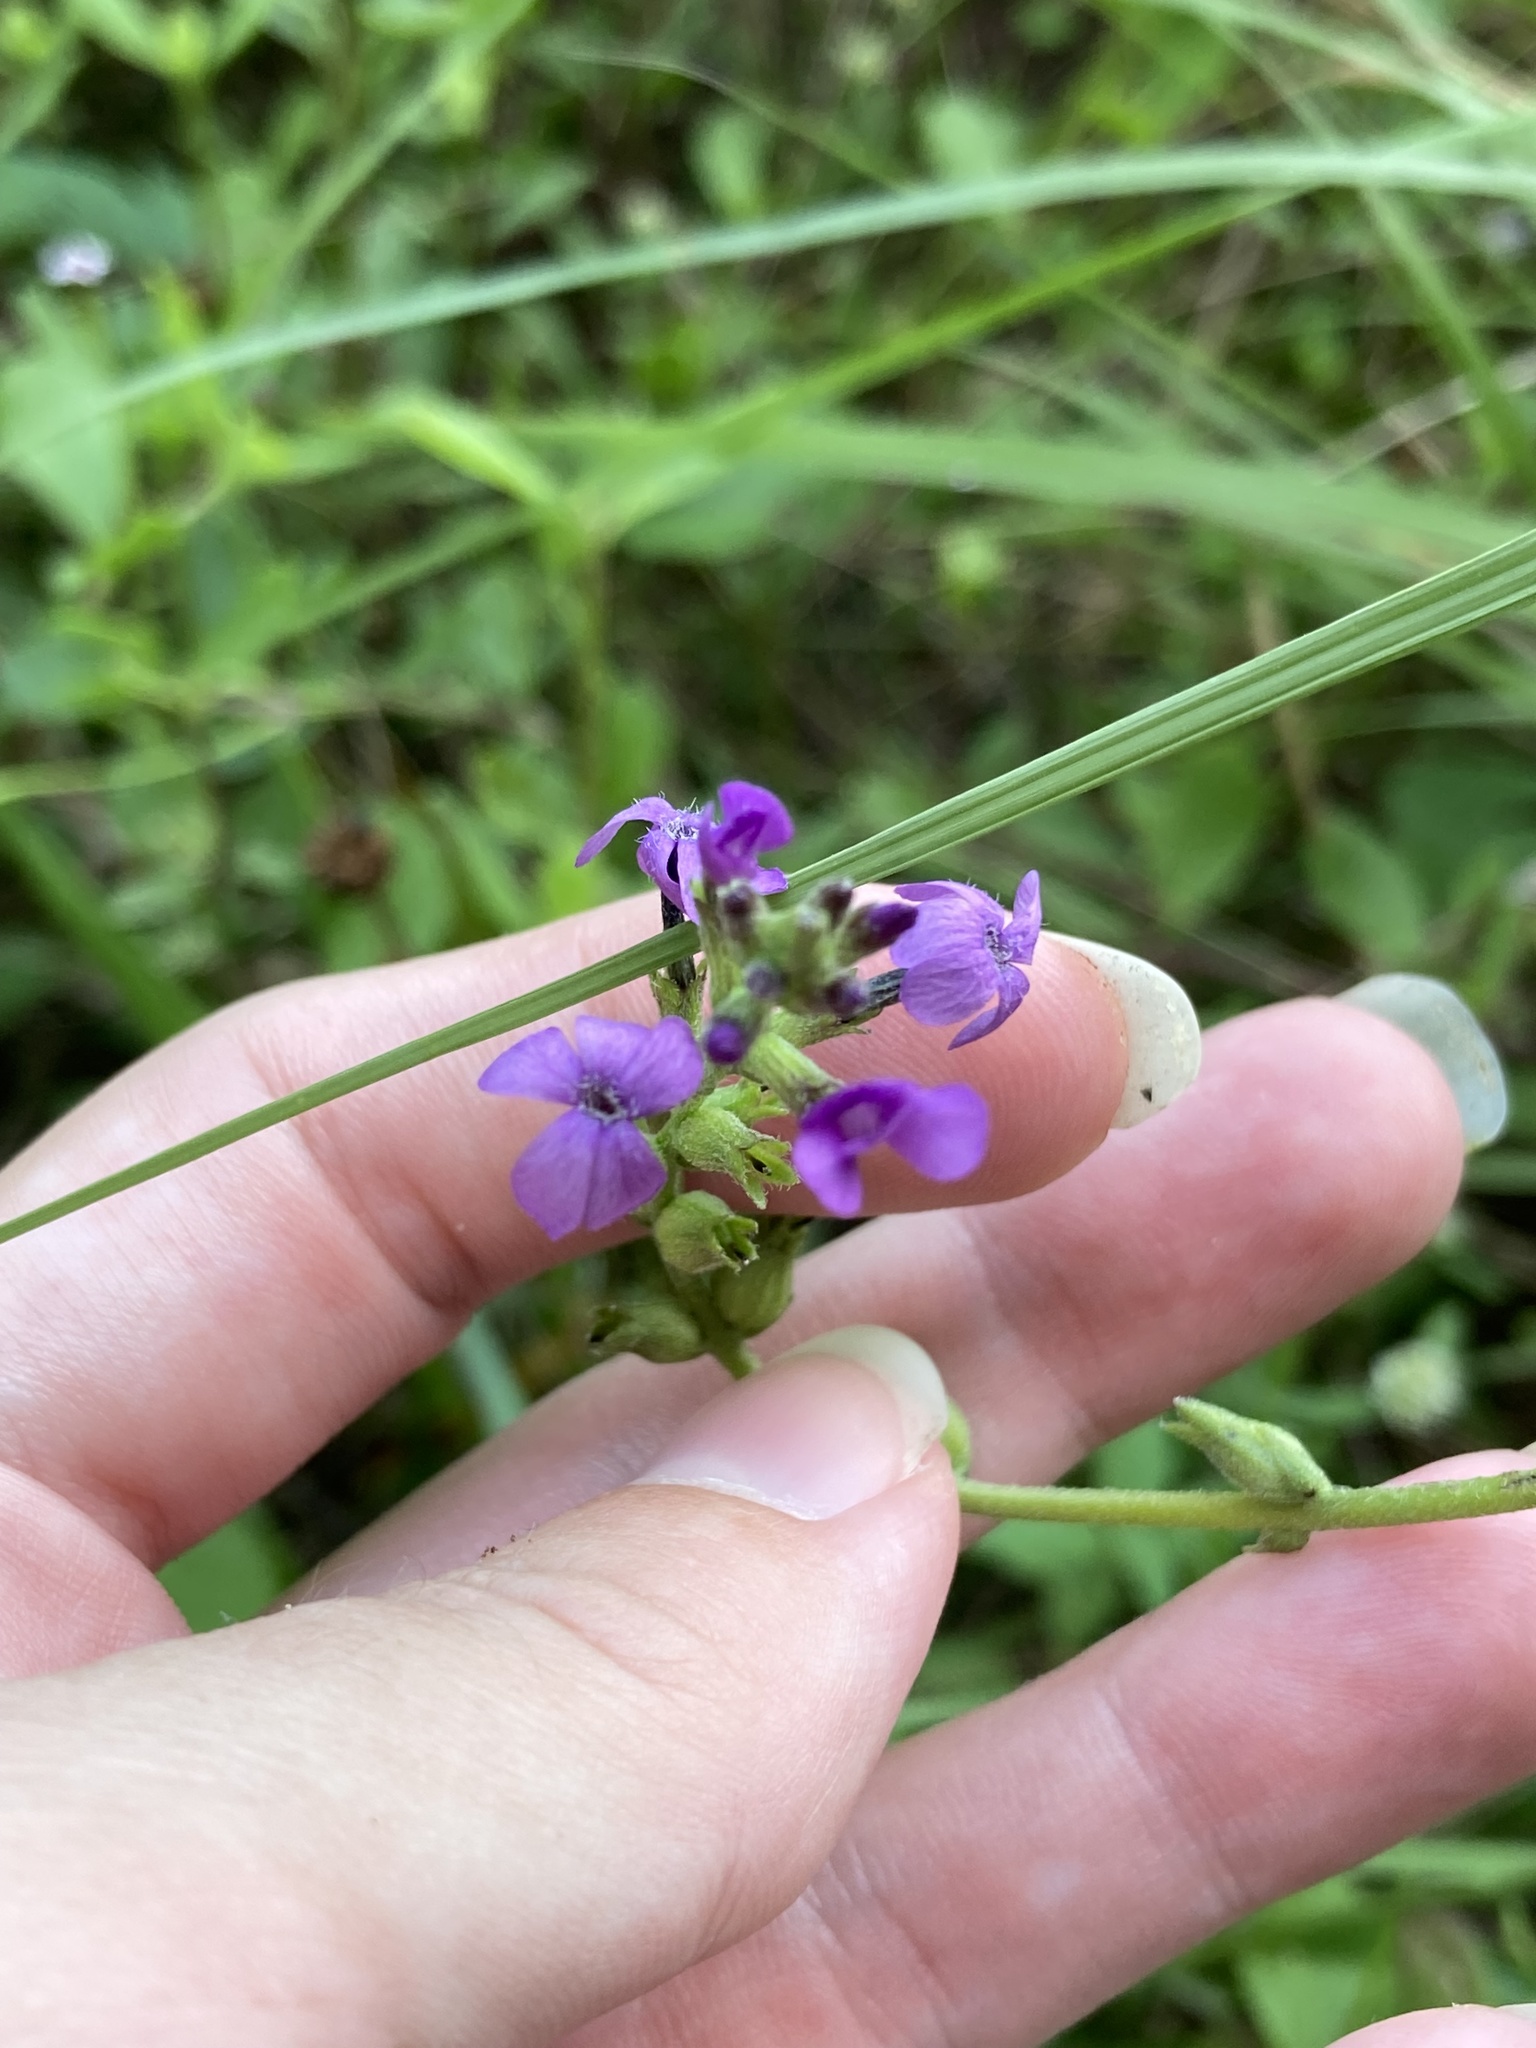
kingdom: Plantae
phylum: Tracheophyta
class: Magnoliopsida
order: Lamiales
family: Orobanchaceae
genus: Buchnera
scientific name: Buchnera floridana
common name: Florida bluehearts
